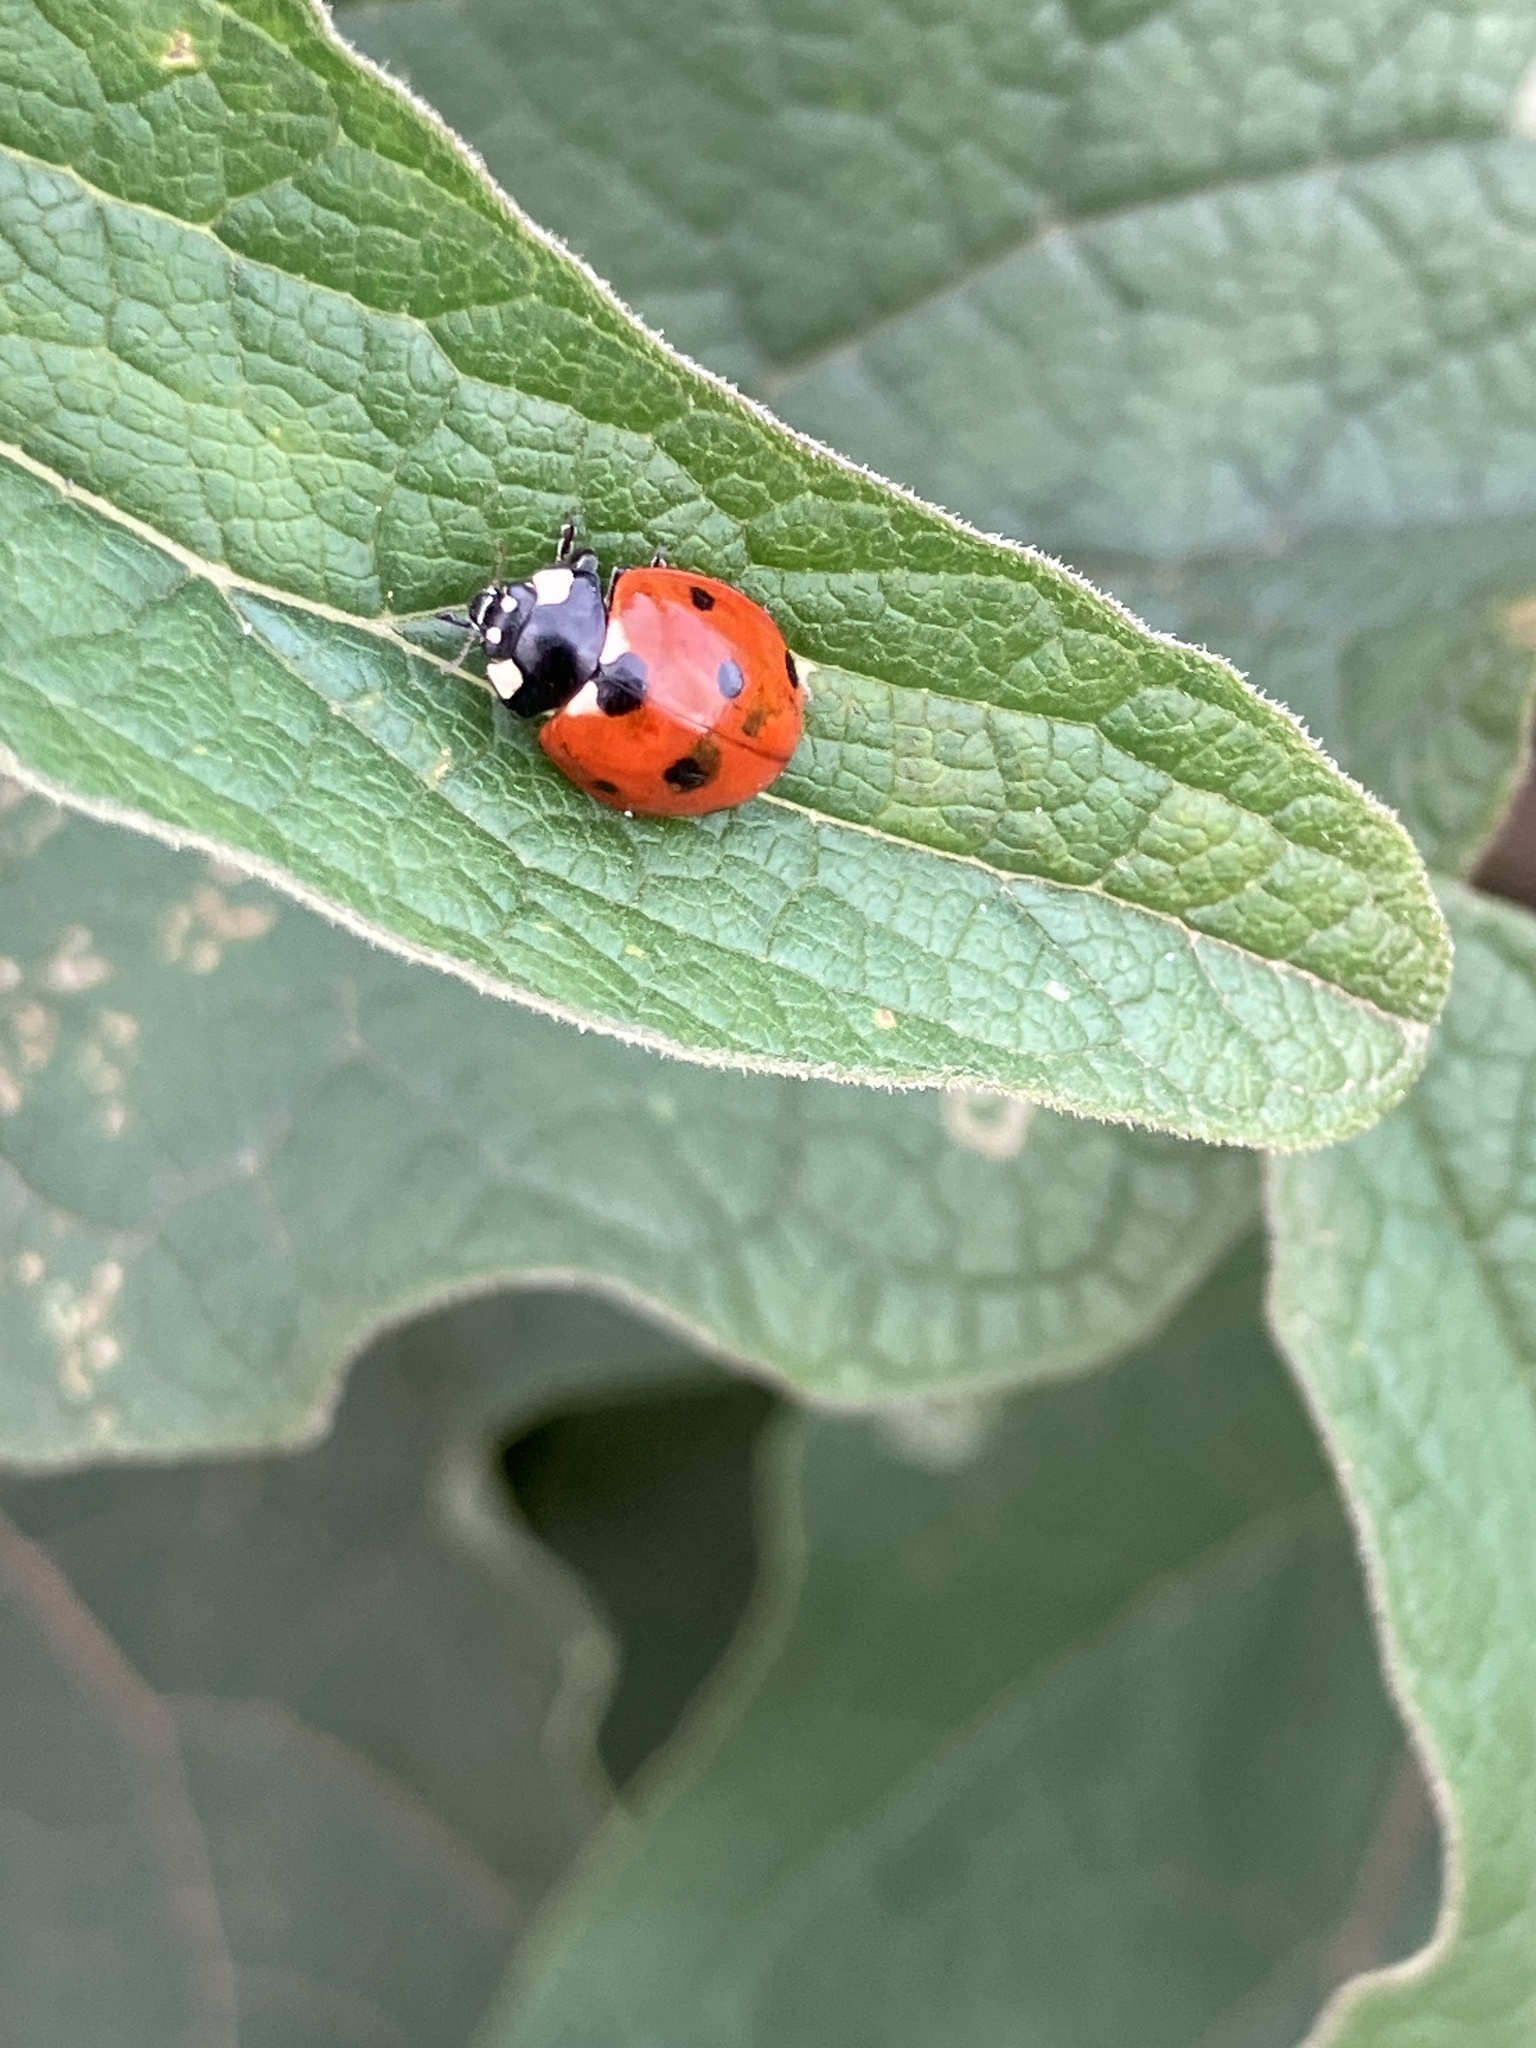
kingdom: Animalia
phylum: Arthropoda
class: Insecta
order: Coleoptera
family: Coccinellidae
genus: Coccinella
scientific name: Coccinella septempunctata
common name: Sevenspotted lady beetle
